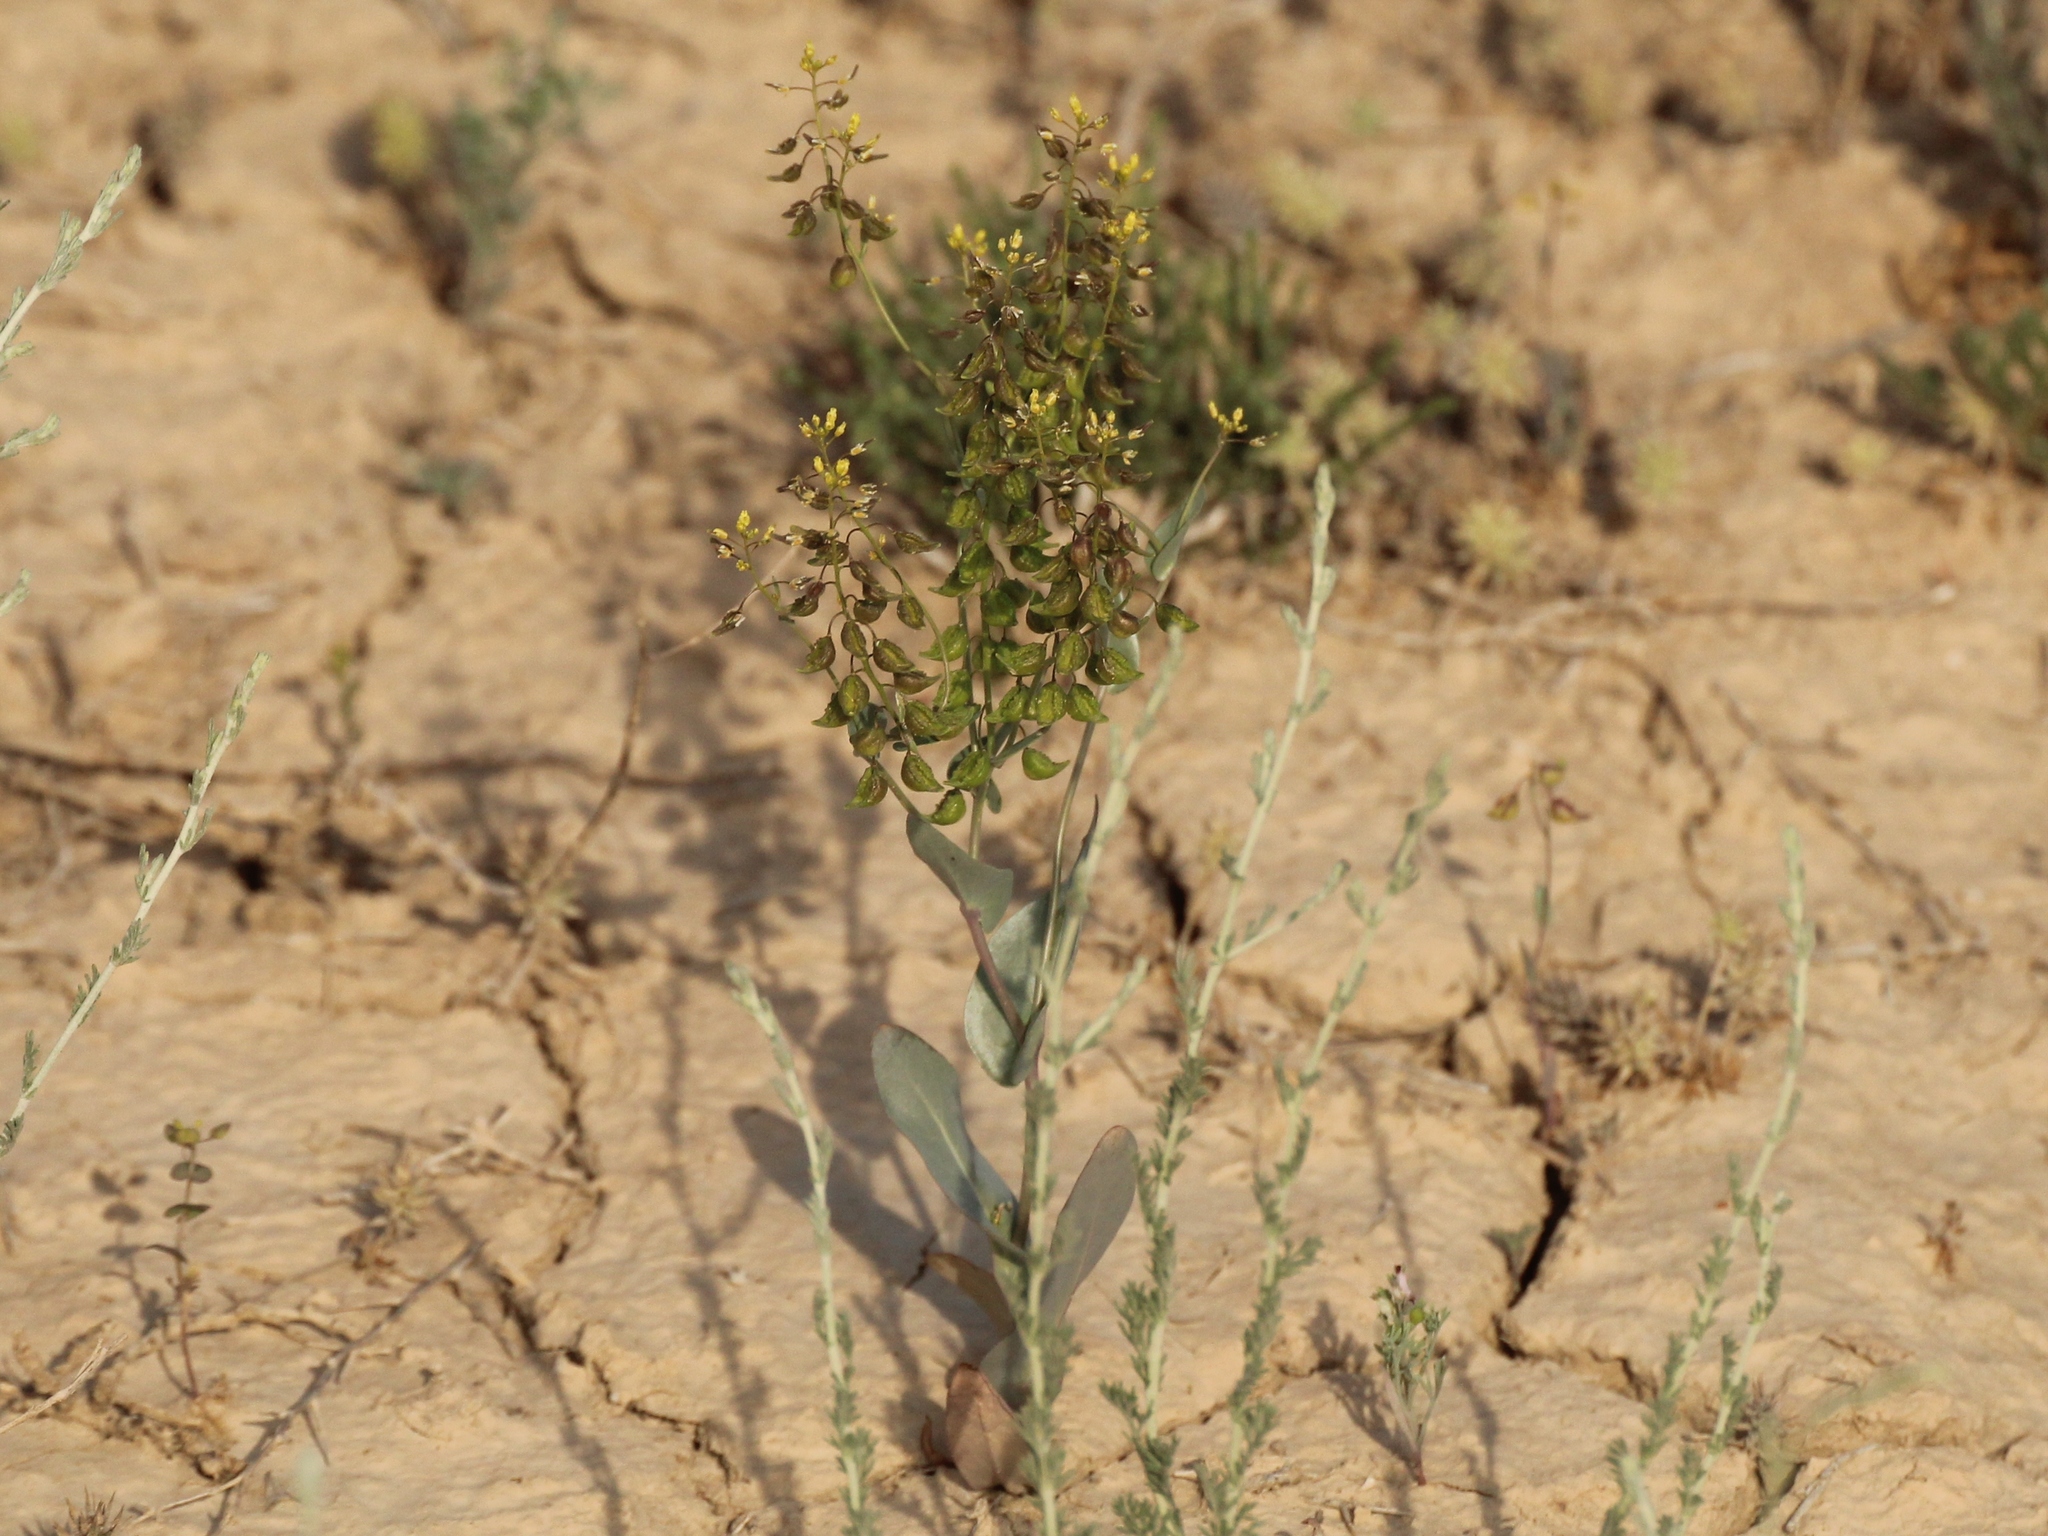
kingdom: Plantae
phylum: Tracheophyta
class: Magnoliopsida
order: Brassicales
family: Brassicaceae
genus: Isatis
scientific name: Isatis gymnocarpa
